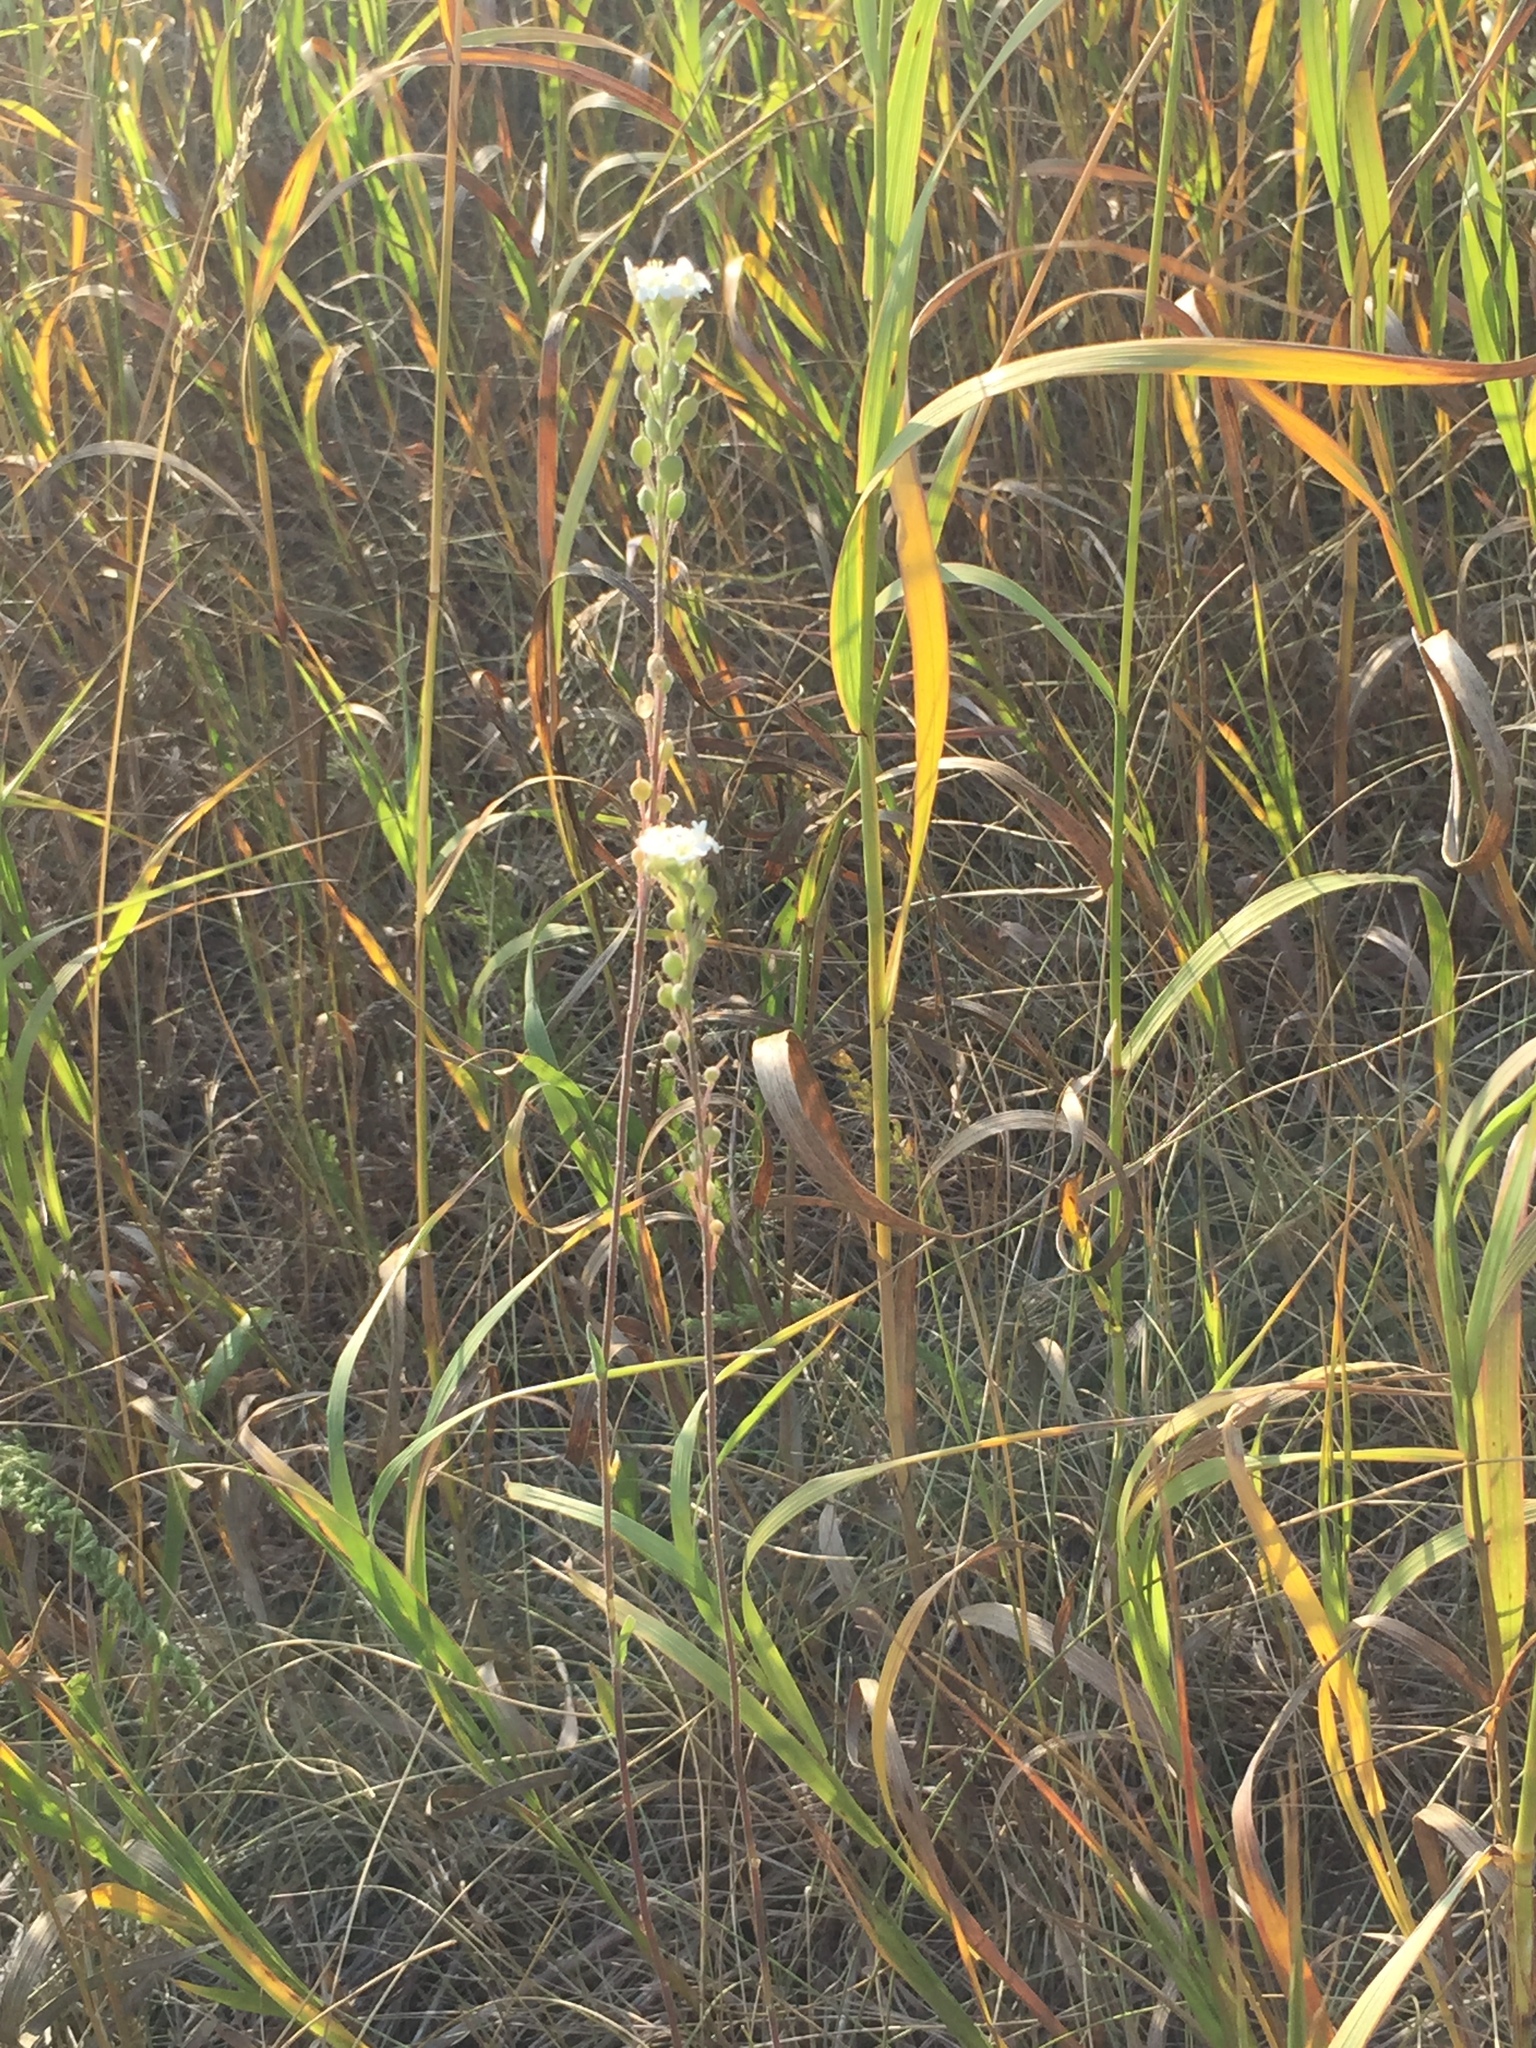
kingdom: Plantae
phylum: Tracheophyta
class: Magnoliopsida
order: Brassicales
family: Brassicaceae
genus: Berteroa
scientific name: Berteroa incana
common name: Hoary alison
